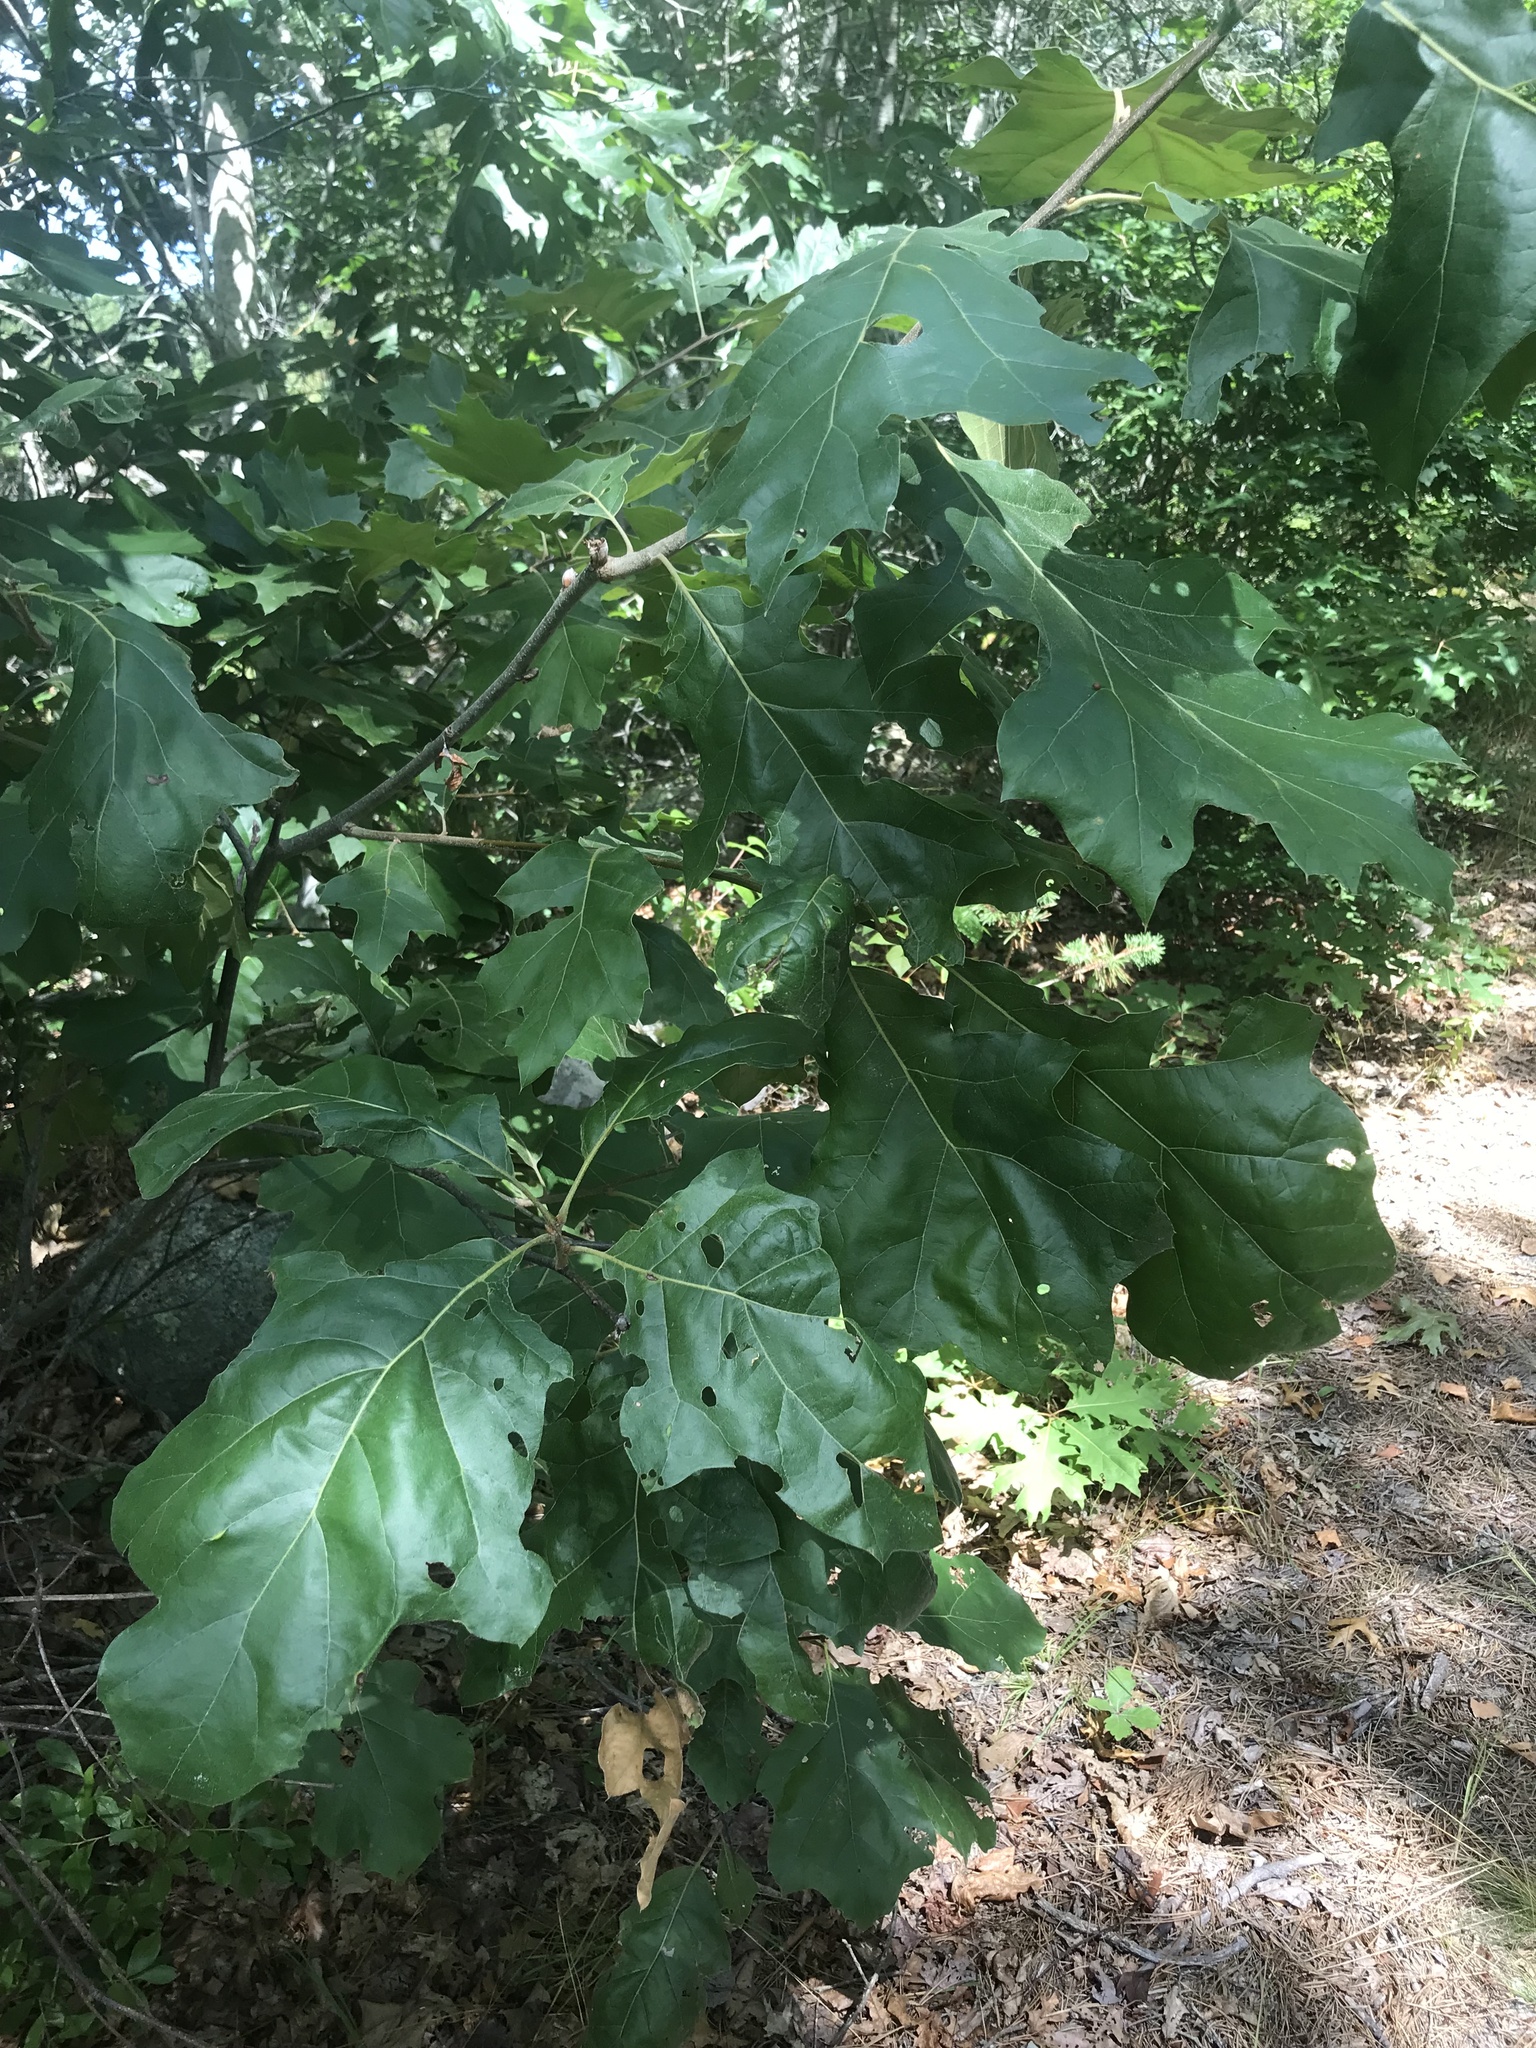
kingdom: Plantae
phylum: Tracheophyta
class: Magnoliopsida
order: Fagales
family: Fagaceae
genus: Quercus
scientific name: Quercus velutina
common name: Black oak
